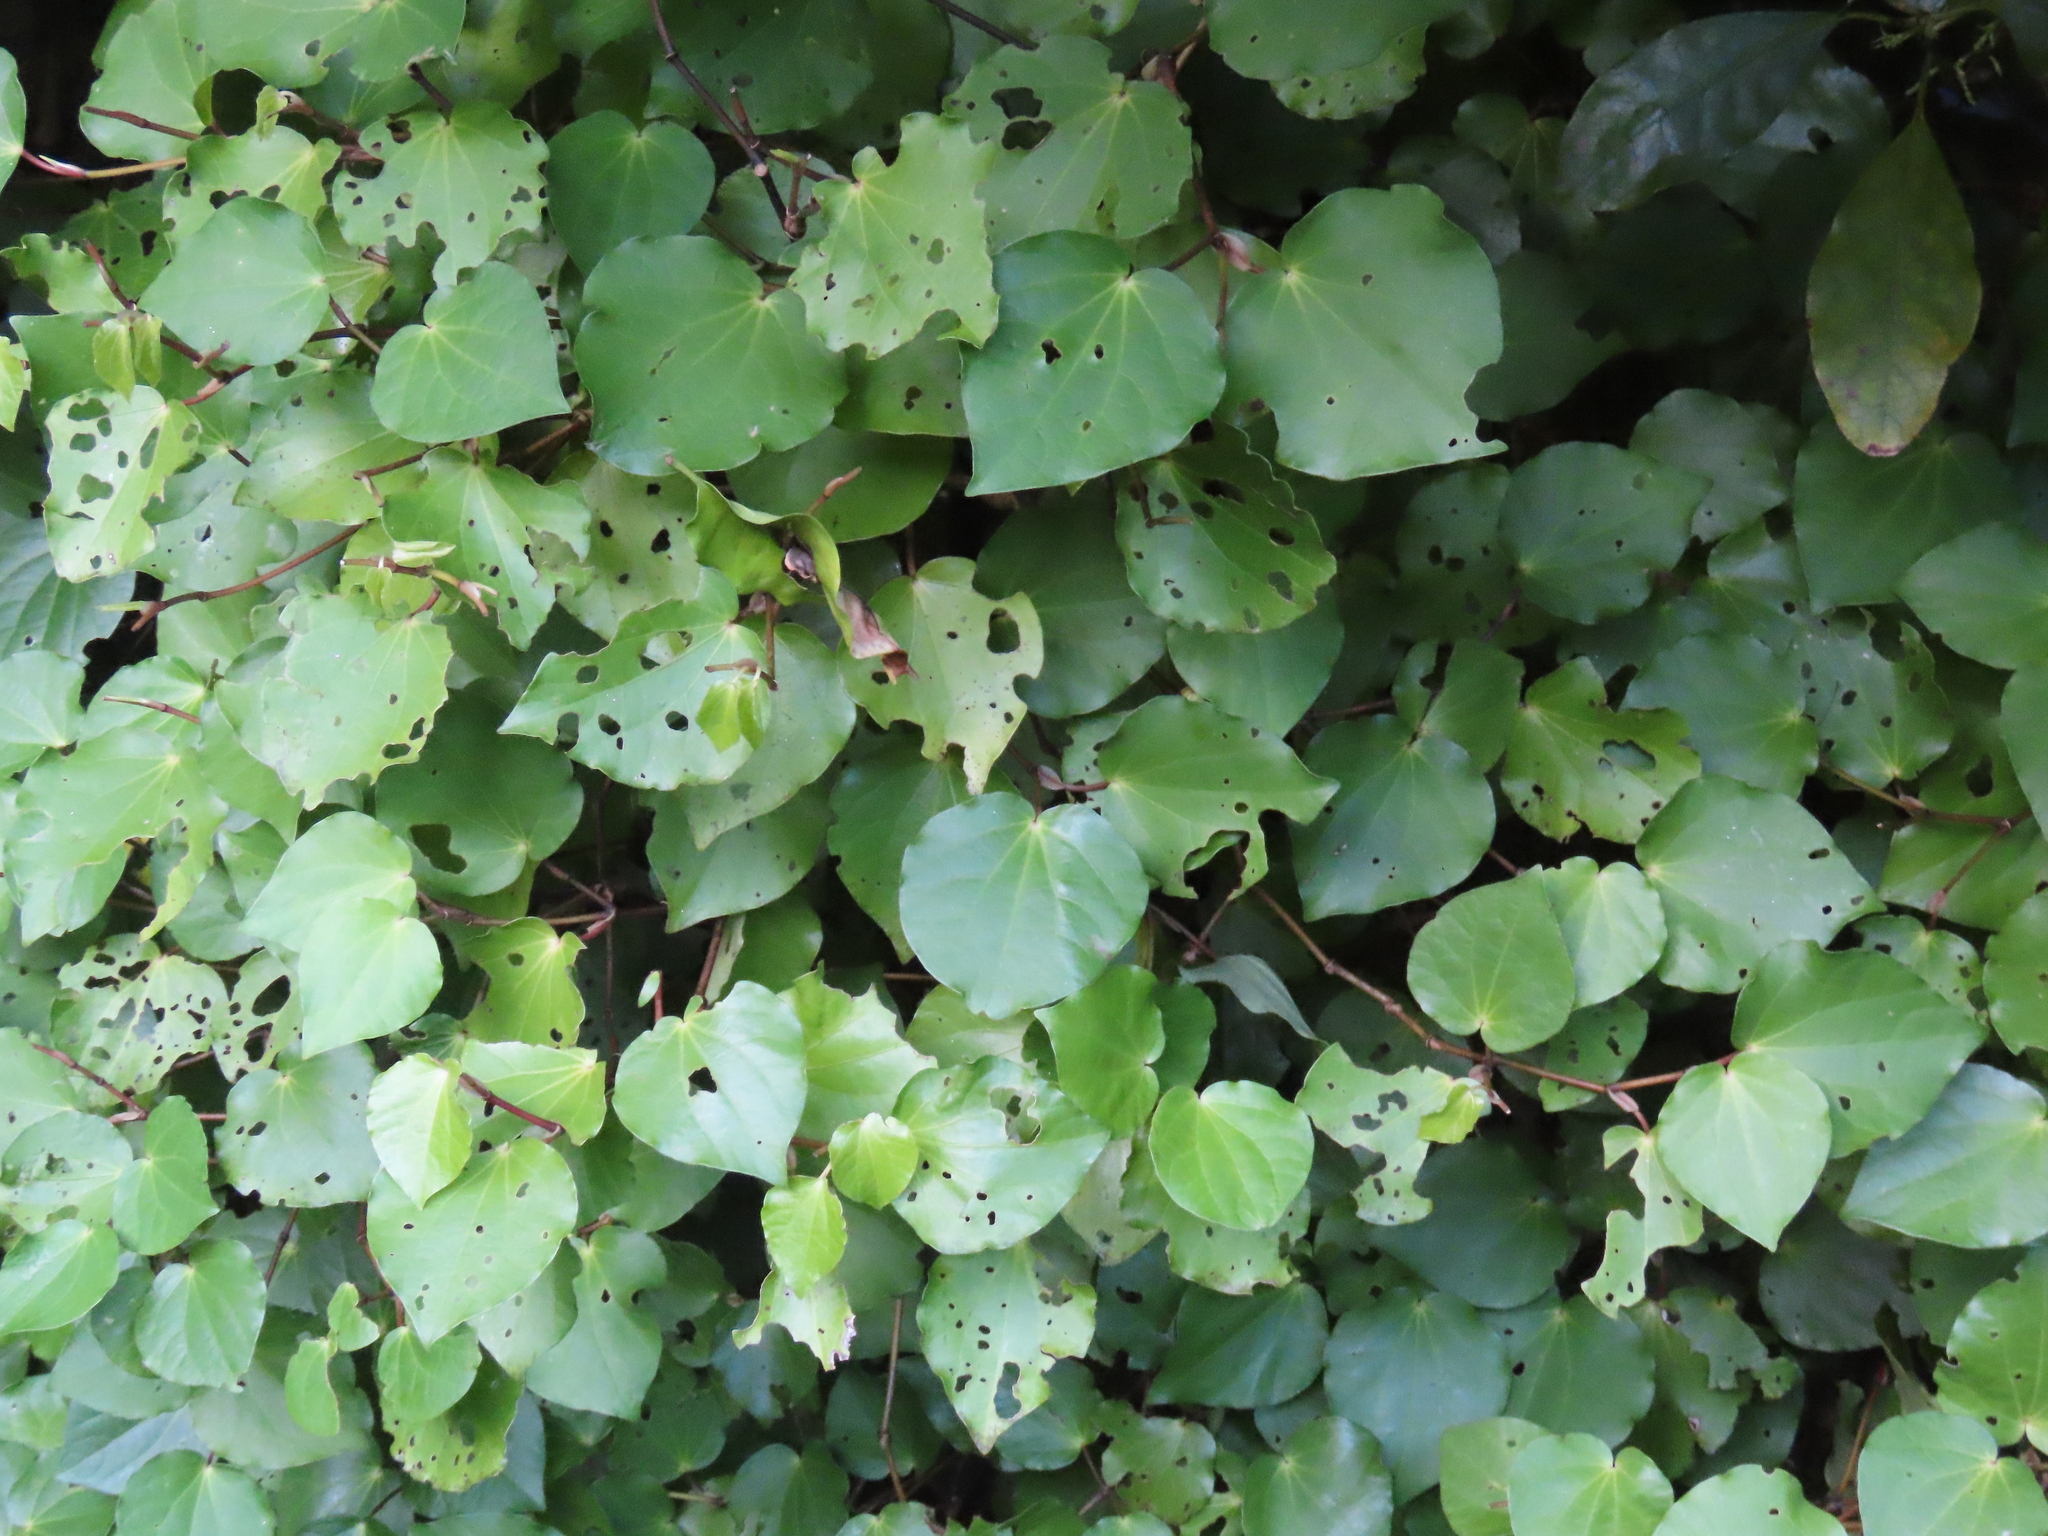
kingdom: Plantae
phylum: Tracheophyta
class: Magnoliopsida
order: Piperales
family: Piperaceae
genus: Macropiper
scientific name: Macropiper excelsum
